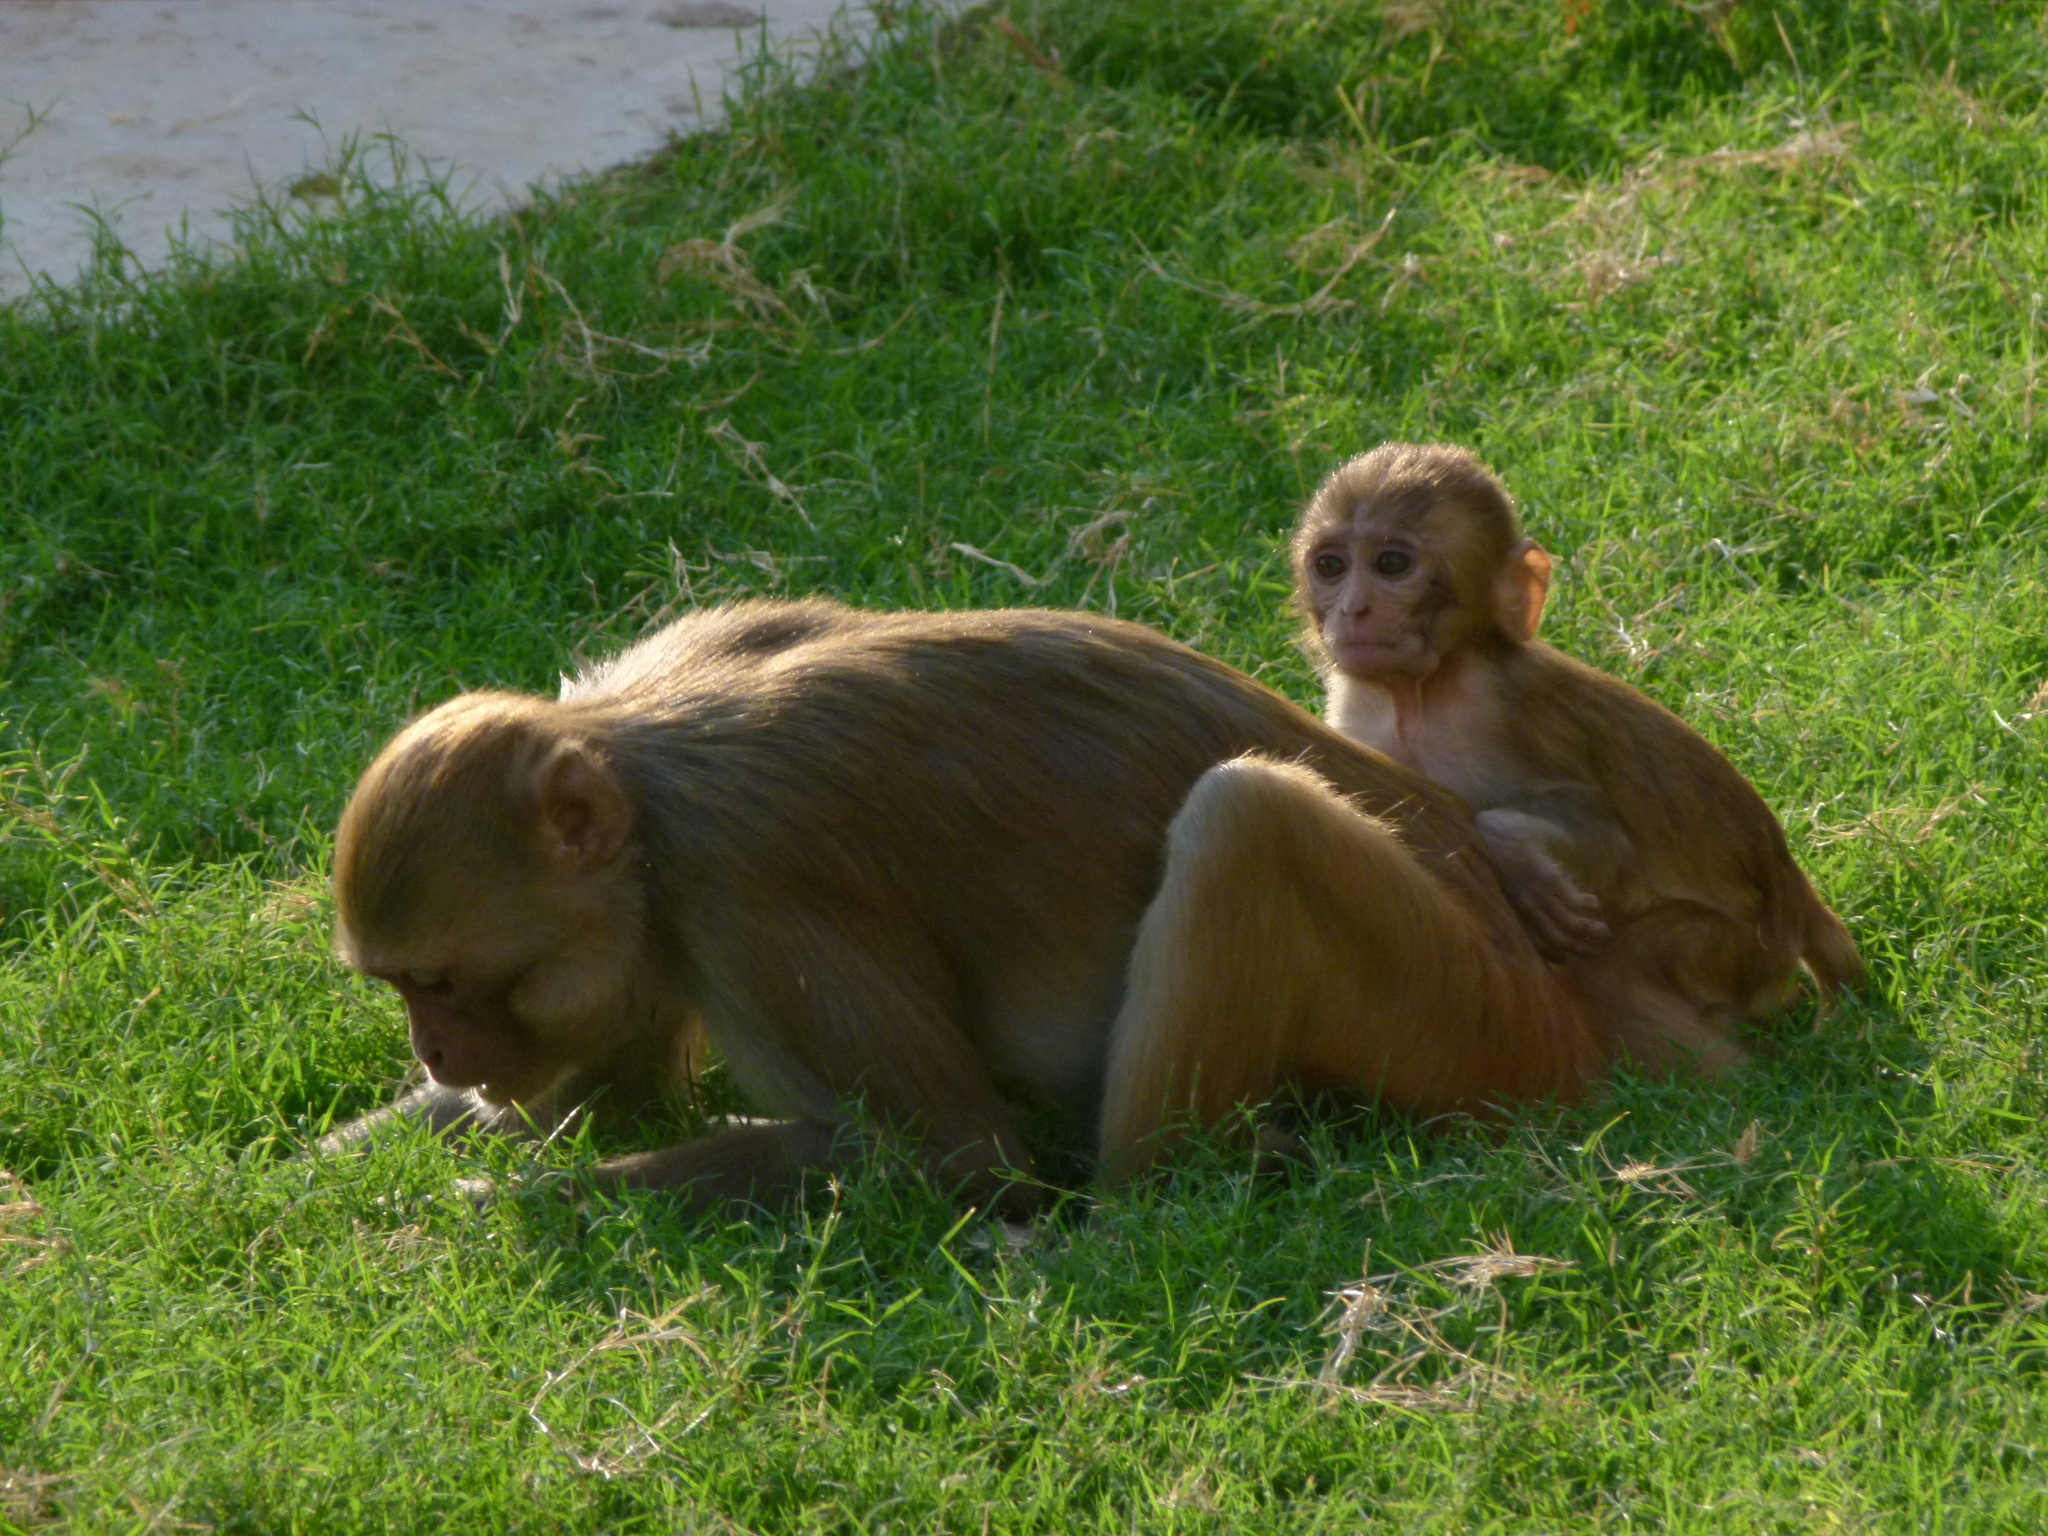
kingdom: Animalia
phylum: Chordata
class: Mammalia
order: Primates
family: Cercopithecidae
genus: Macaca
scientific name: Macaca mulatta
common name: Rhesus monkey
